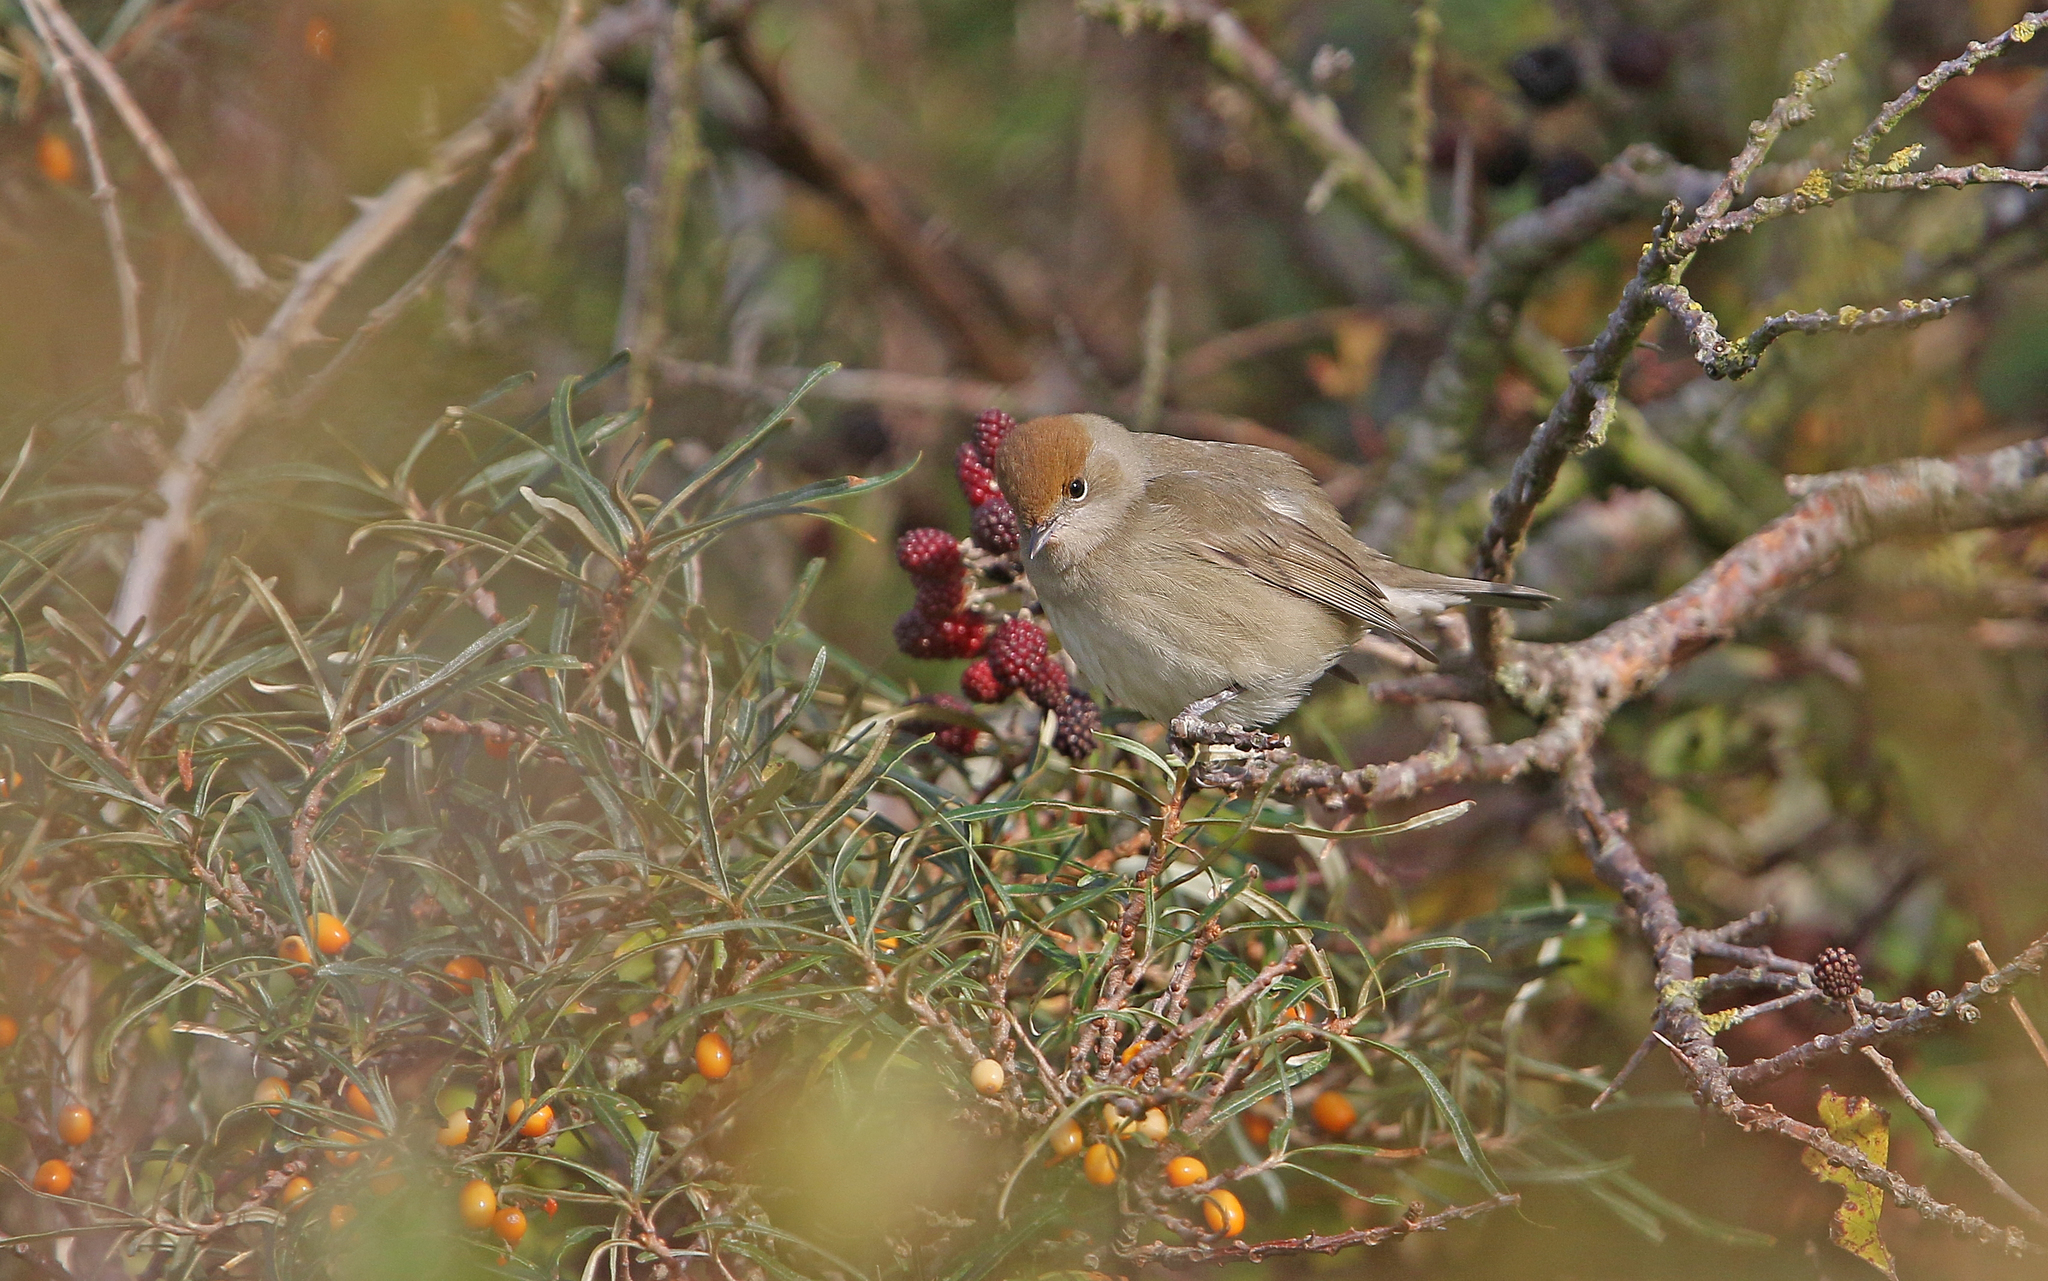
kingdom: Animalia
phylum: Chordata
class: Aves
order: Passeriformes
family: Sylviidae
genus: Sylvia
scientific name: Sylvia atricapilla
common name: Eurasian blackcap
